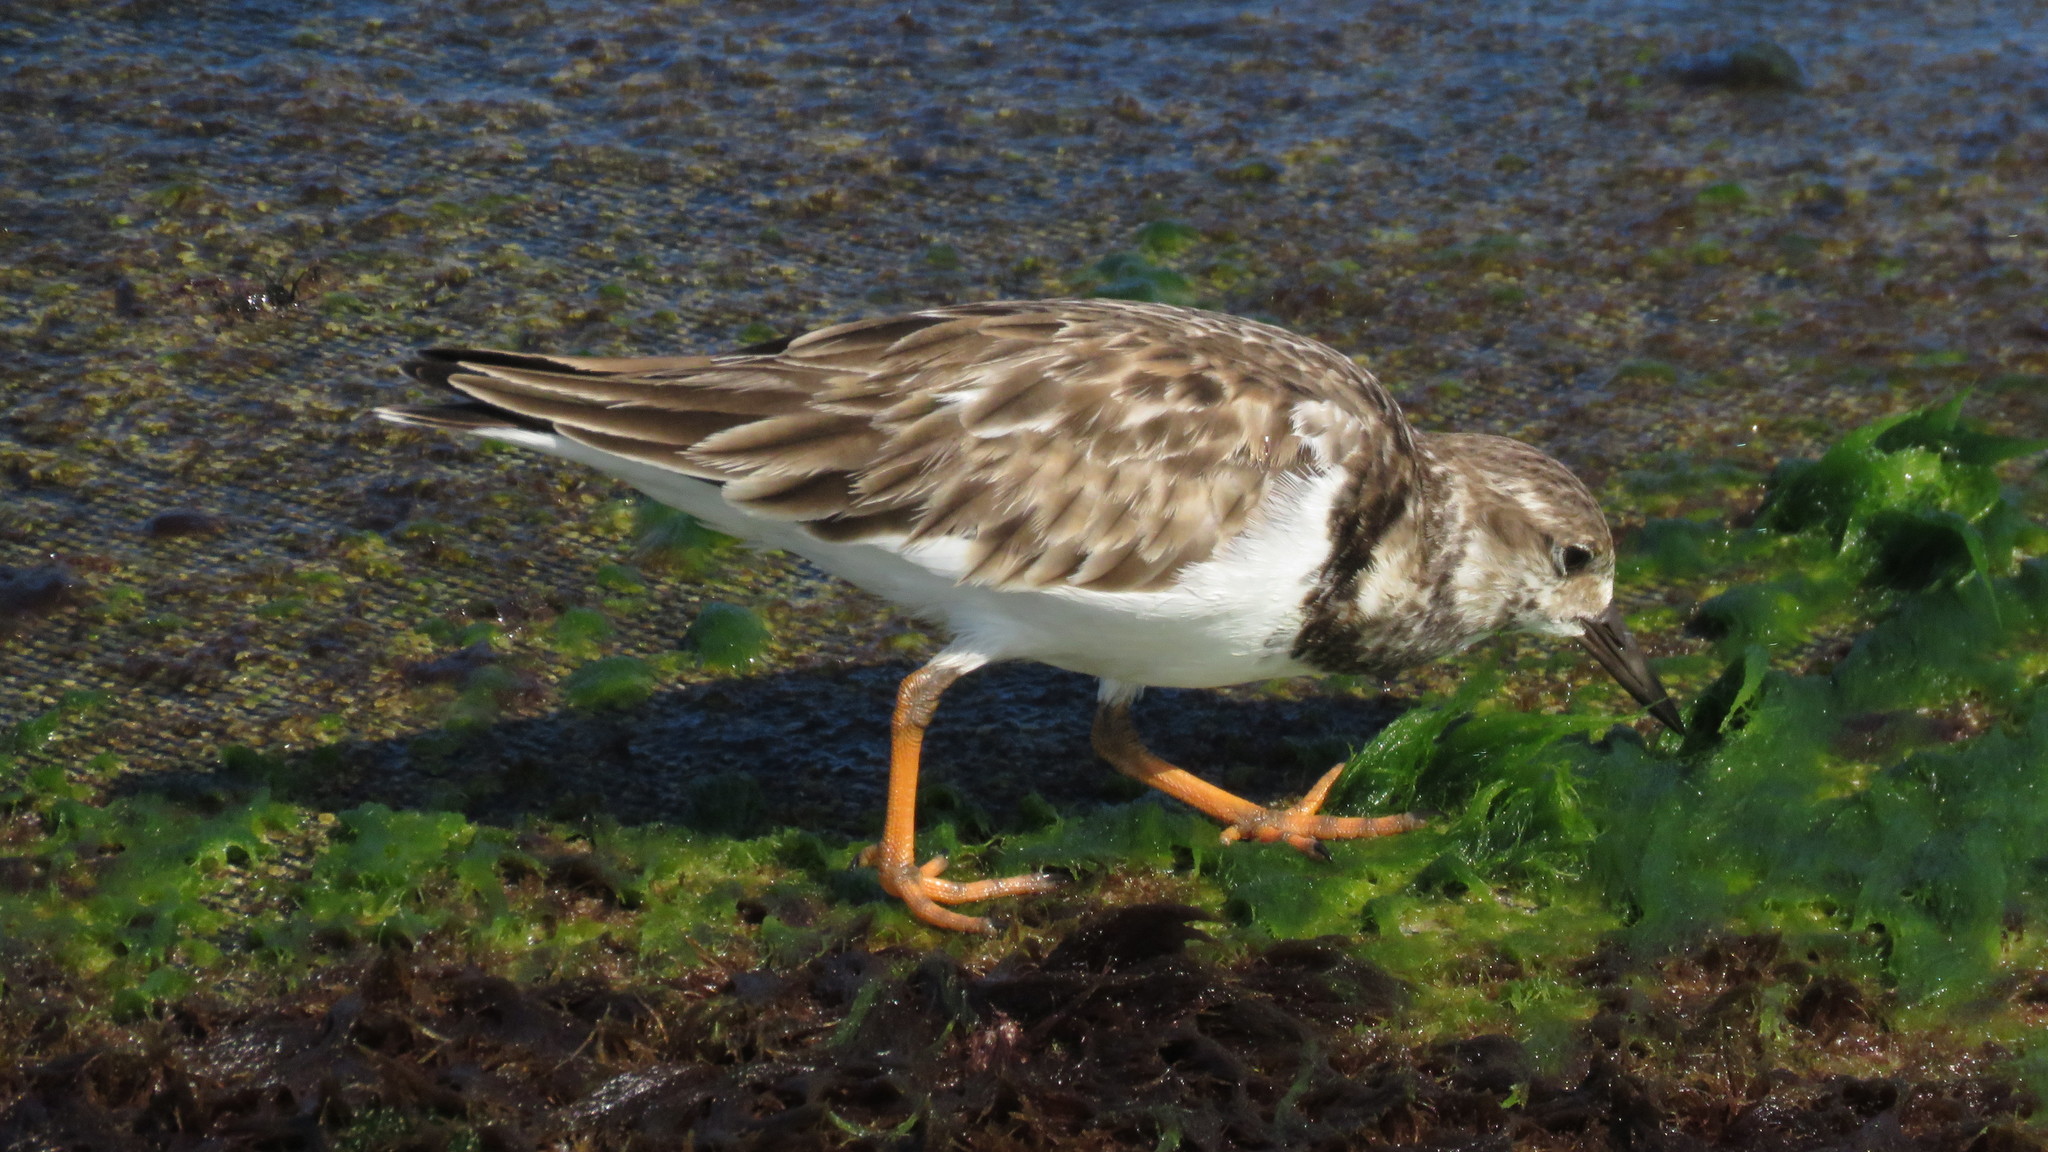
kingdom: Animalia
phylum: Chordata
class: Aves
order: Charadriiformes
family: Scolopacidae
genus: Arenaria
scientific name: Arenaria interpres
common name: Ruddy turnstone
